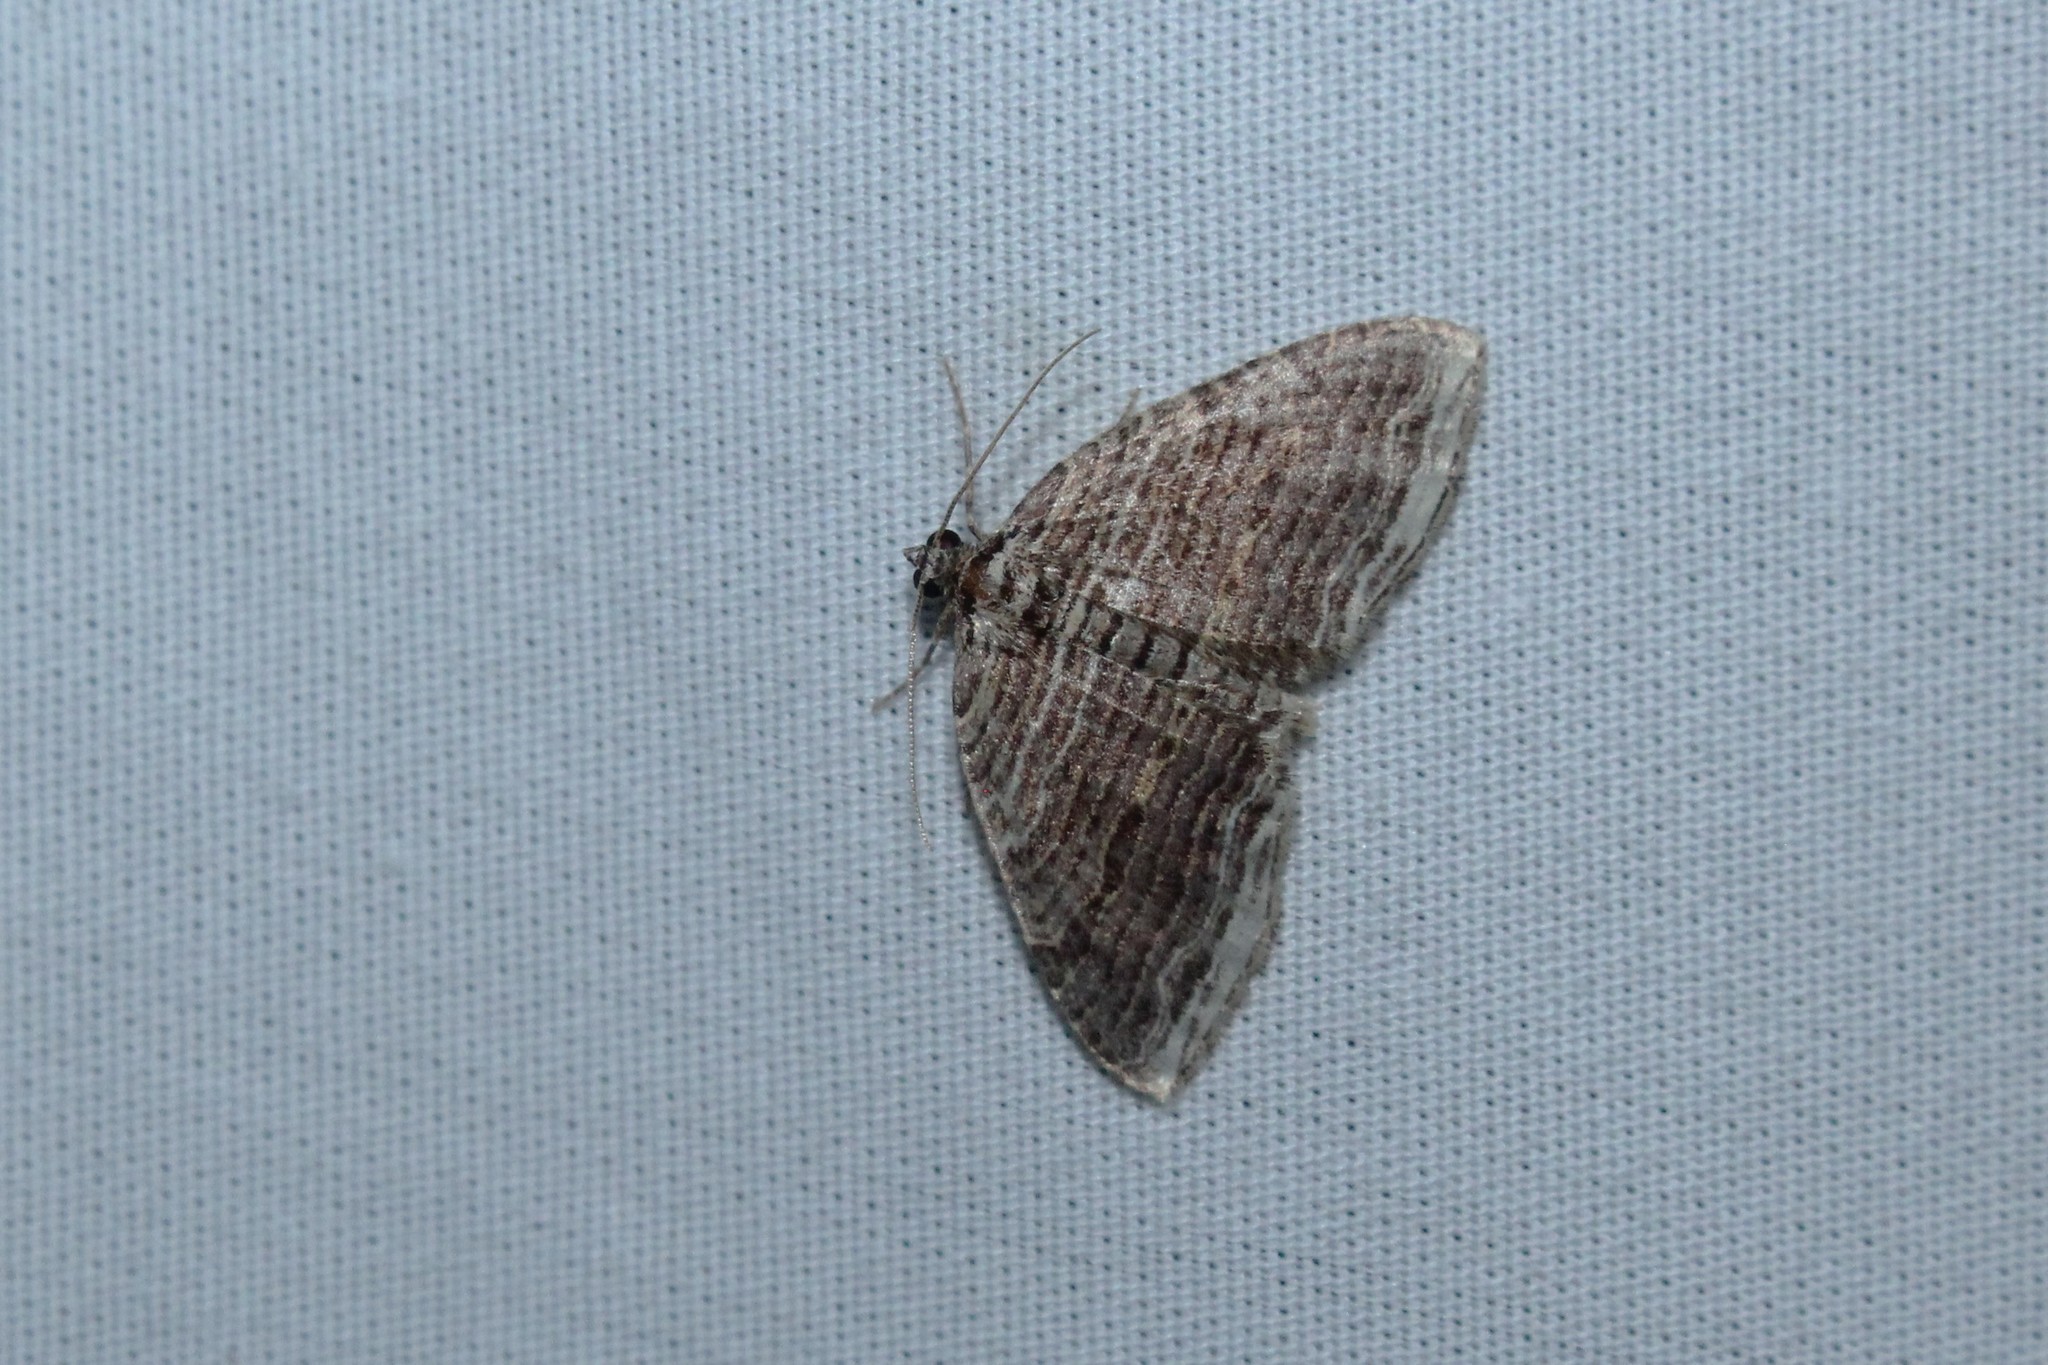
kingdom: Animalia
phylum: Arthropoda
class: Insecta
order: Lepidoptera
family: Geometridae
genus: Anticlea
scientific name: Anticlea multiferata
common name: Many-lined carpet
